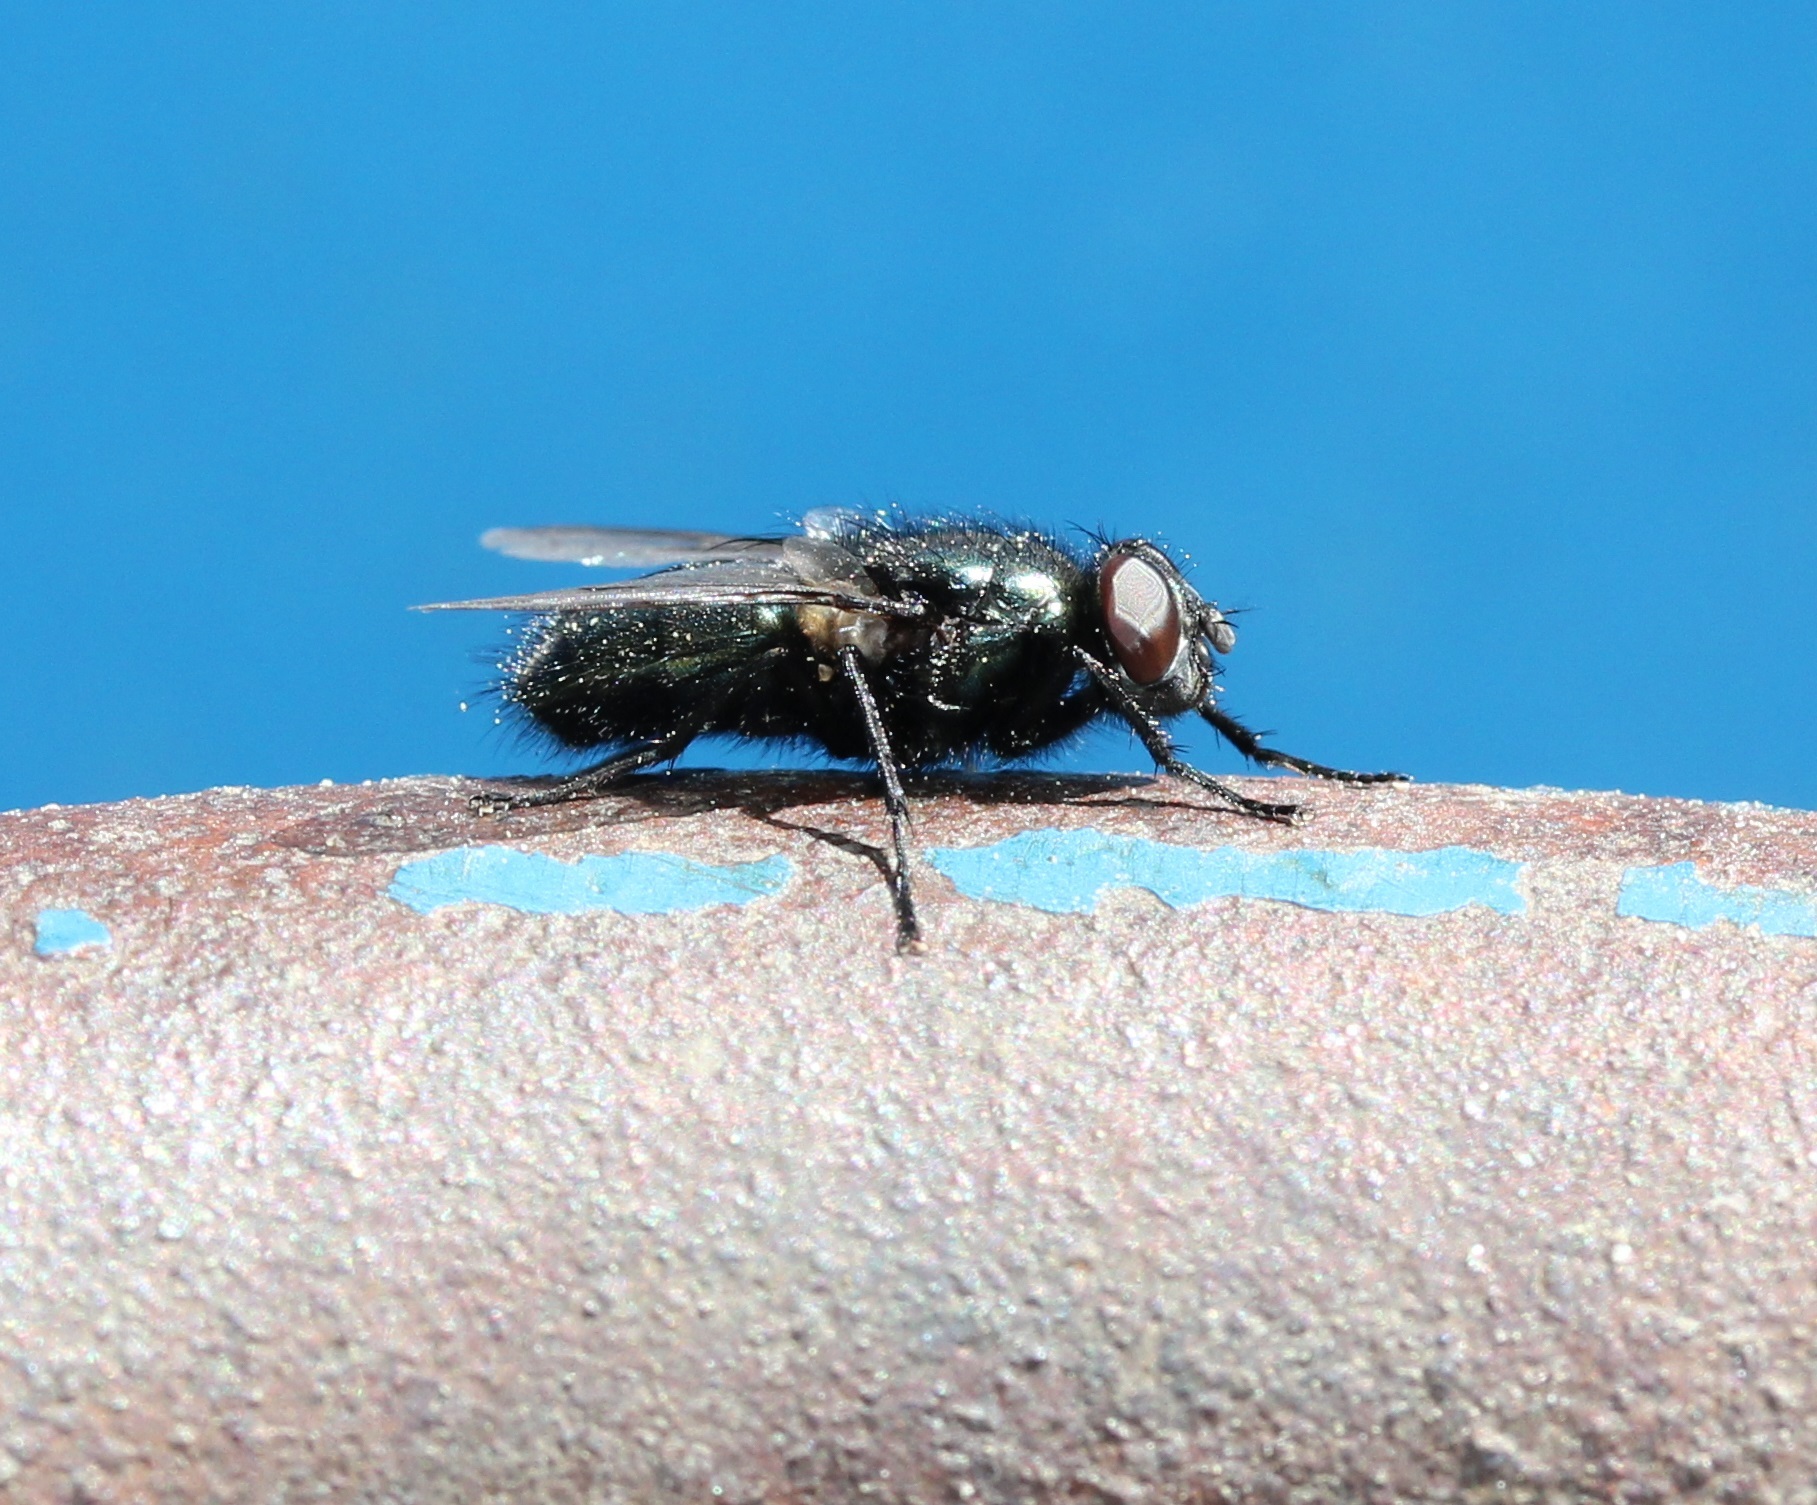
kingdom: Animalia
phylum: Arthropoda
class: Insecta
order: Diptera
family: Calliphoridae
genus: Protophormia
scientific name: Protophormia terraenovae
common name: Blackbottle
